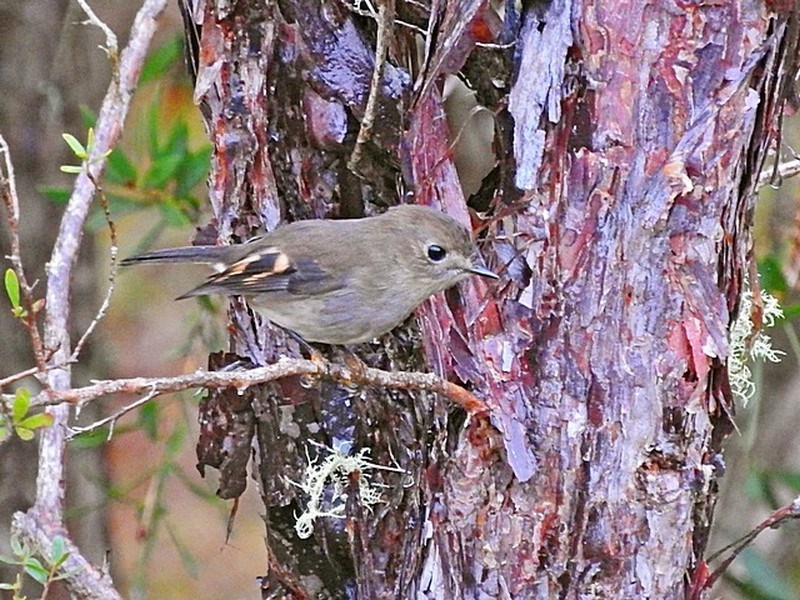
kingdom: Animalia
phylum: Chordata
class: Aves
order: Passeriformes
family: Petroicidae
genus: Petroica
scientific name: Petroica rodinogaster
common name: Pink robin
